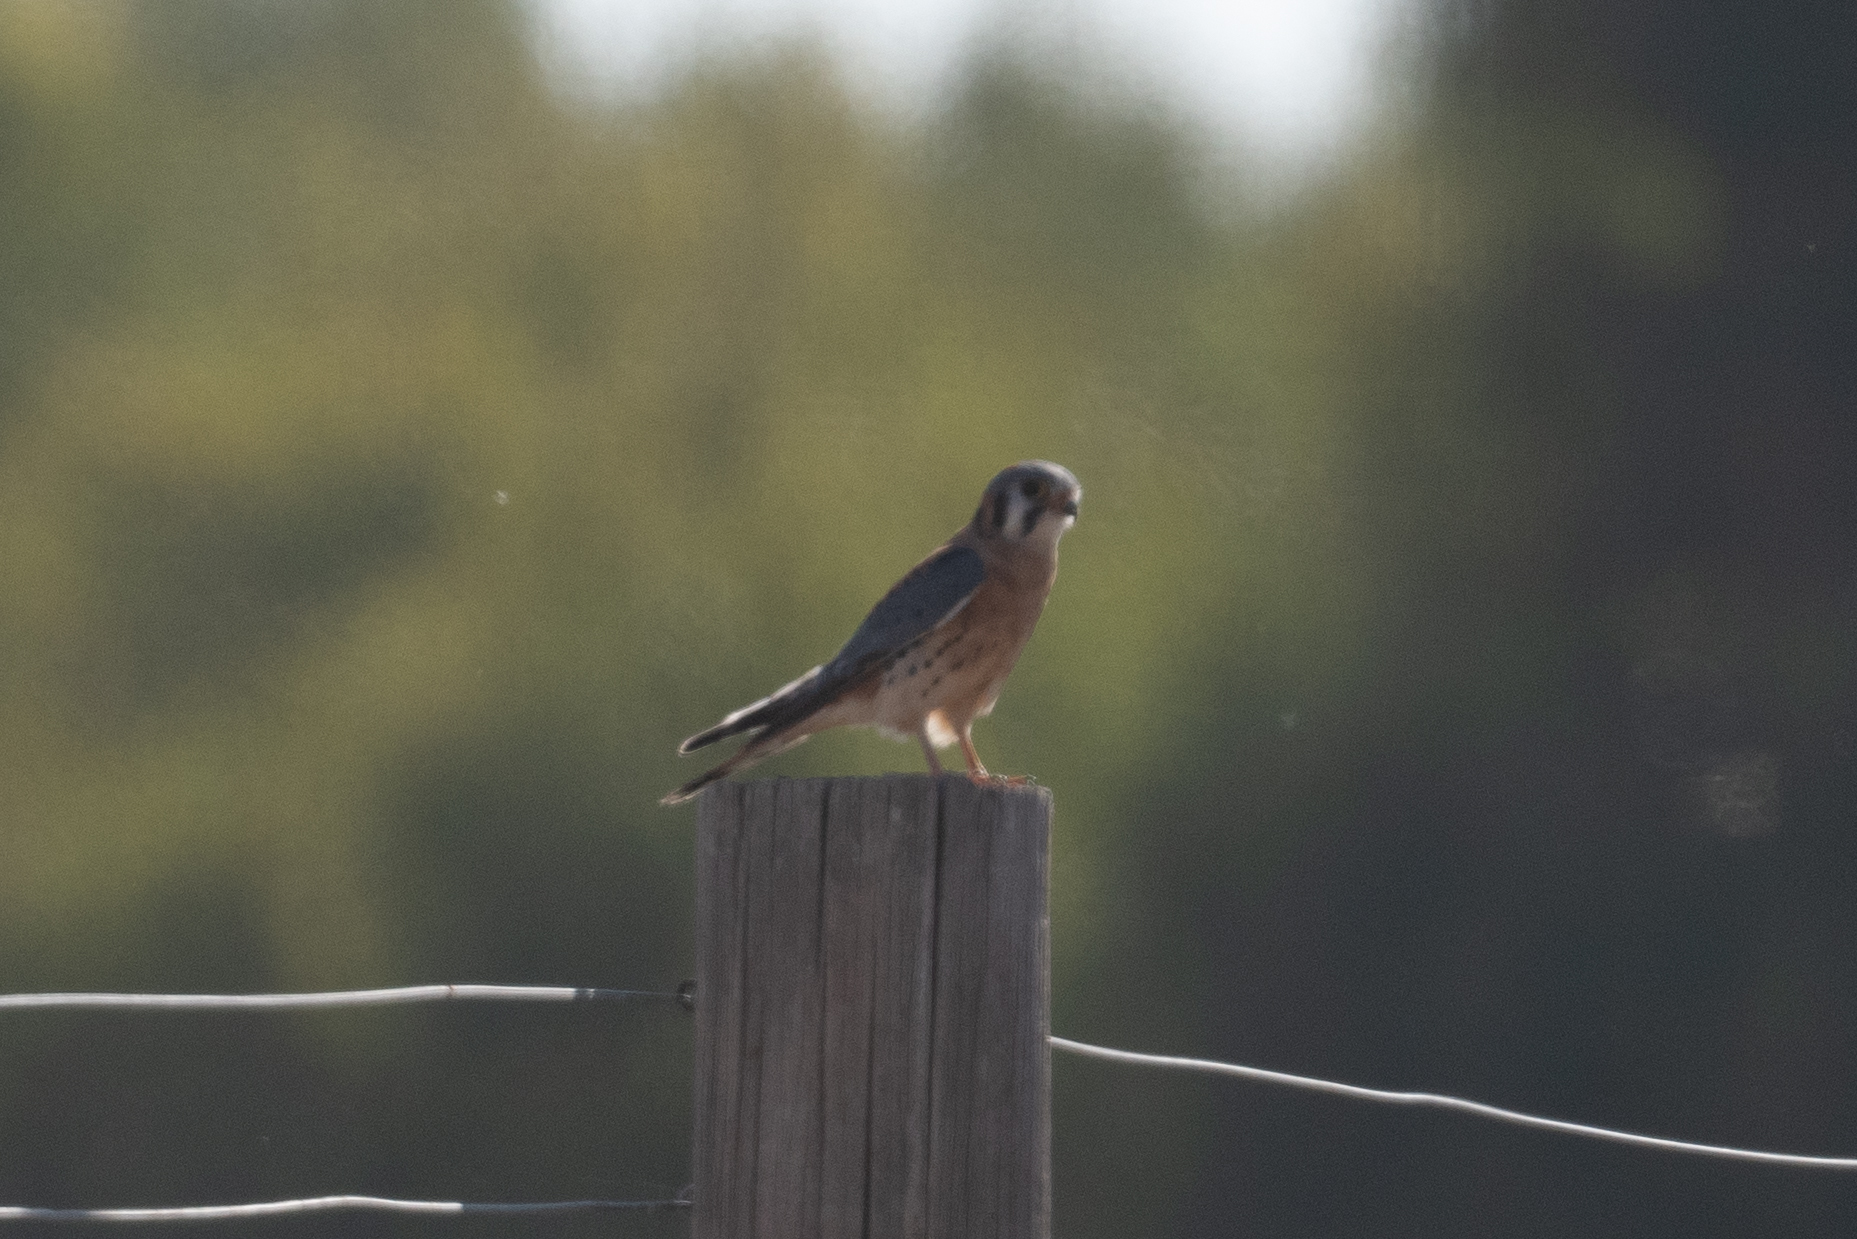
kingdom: Animalia
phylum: Chordata
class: Aves
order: Falconiformes
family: Falconidae
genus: Falco
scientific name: Falco sparverius
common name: American kestrel
